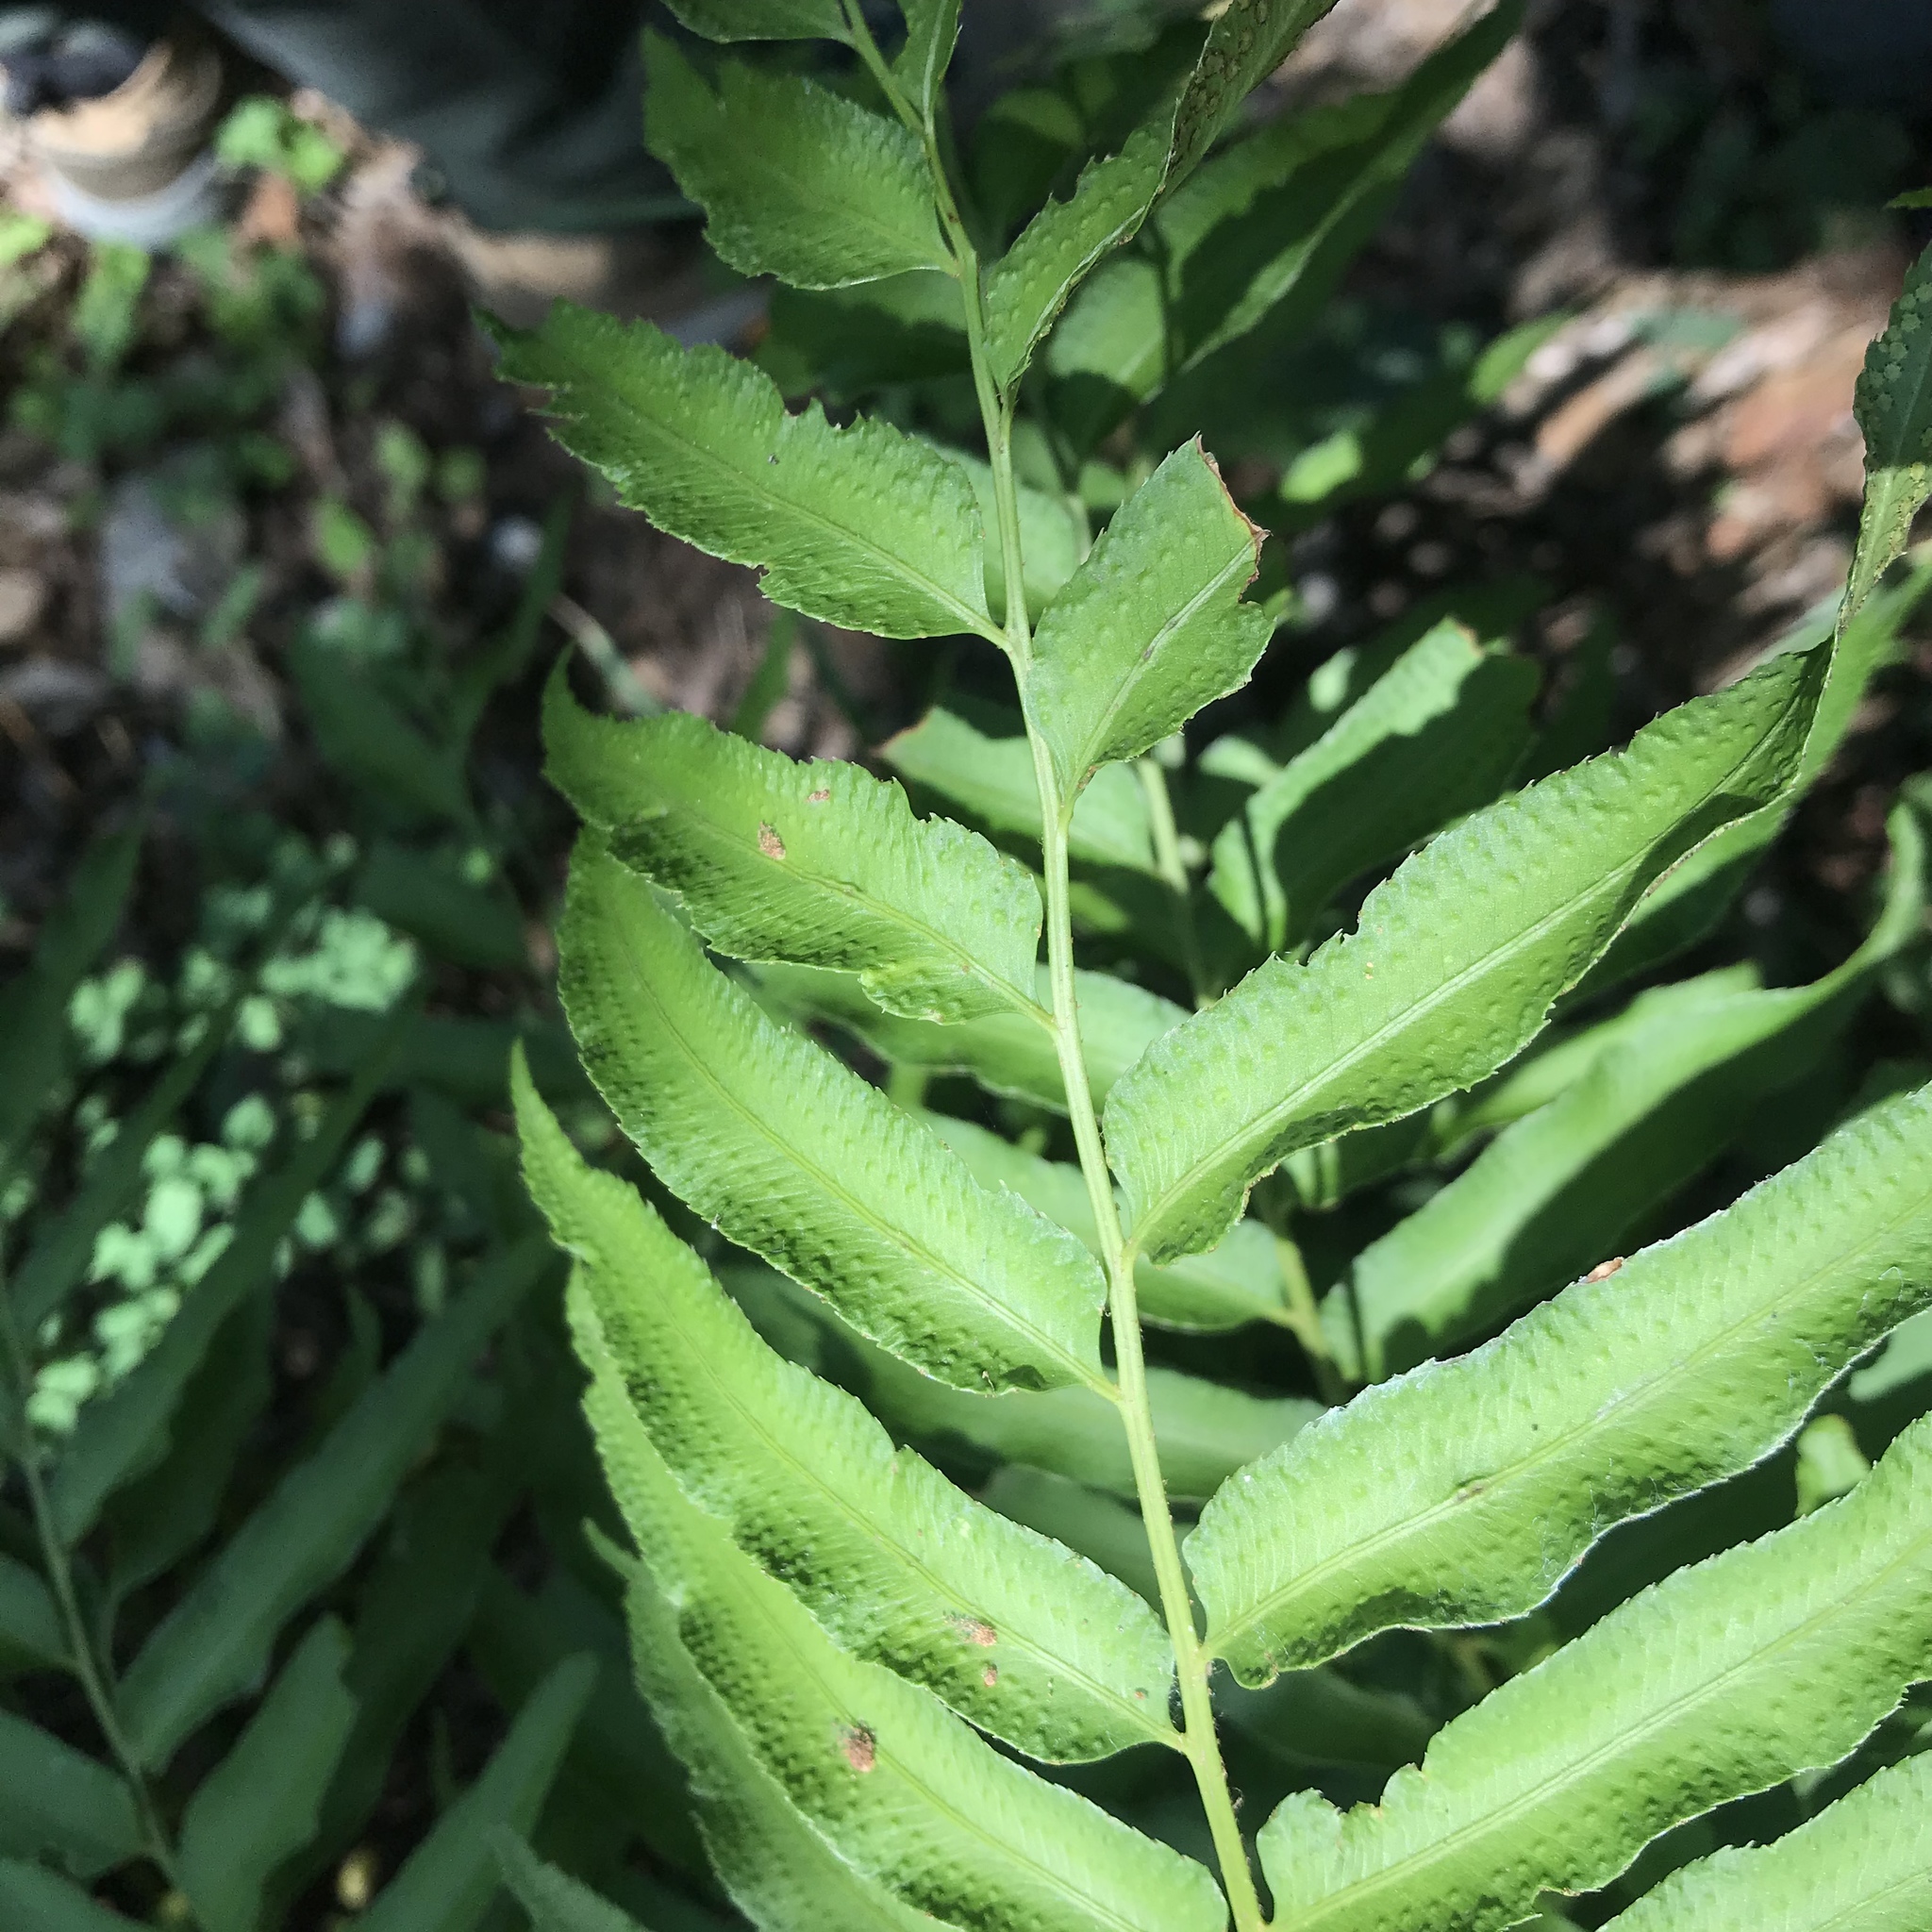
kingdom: Plantae
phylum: Tracheophyta
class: Polypodiopsida
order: Polypodiales
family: Dryopteridaceae
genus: Phanerophlebia
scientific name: Phanerophlebia umbonata
